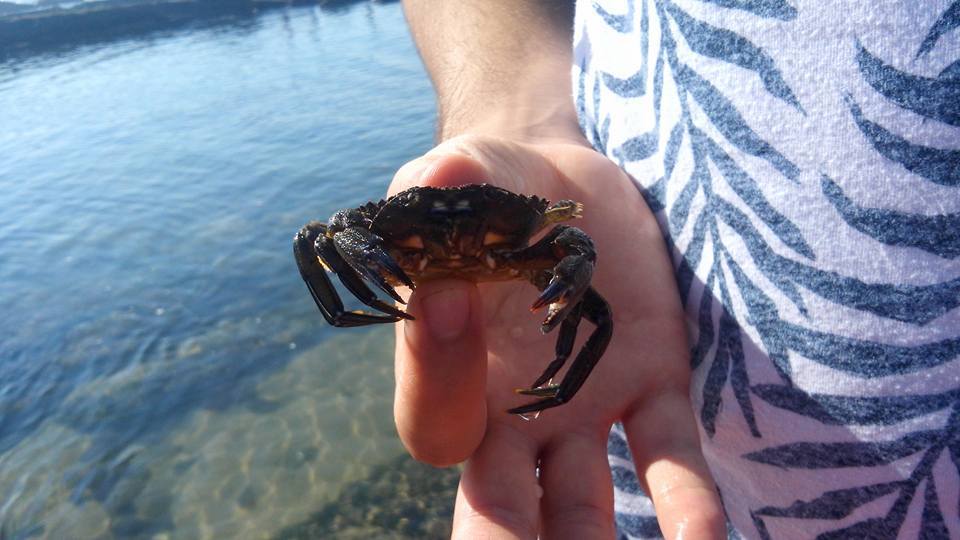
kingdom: Animalia
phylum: Arthropoda
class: Malacostraca
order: Decapoda
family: Polybiidae
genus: Necora
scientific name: Necora puber
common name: Velvet swimming crab
